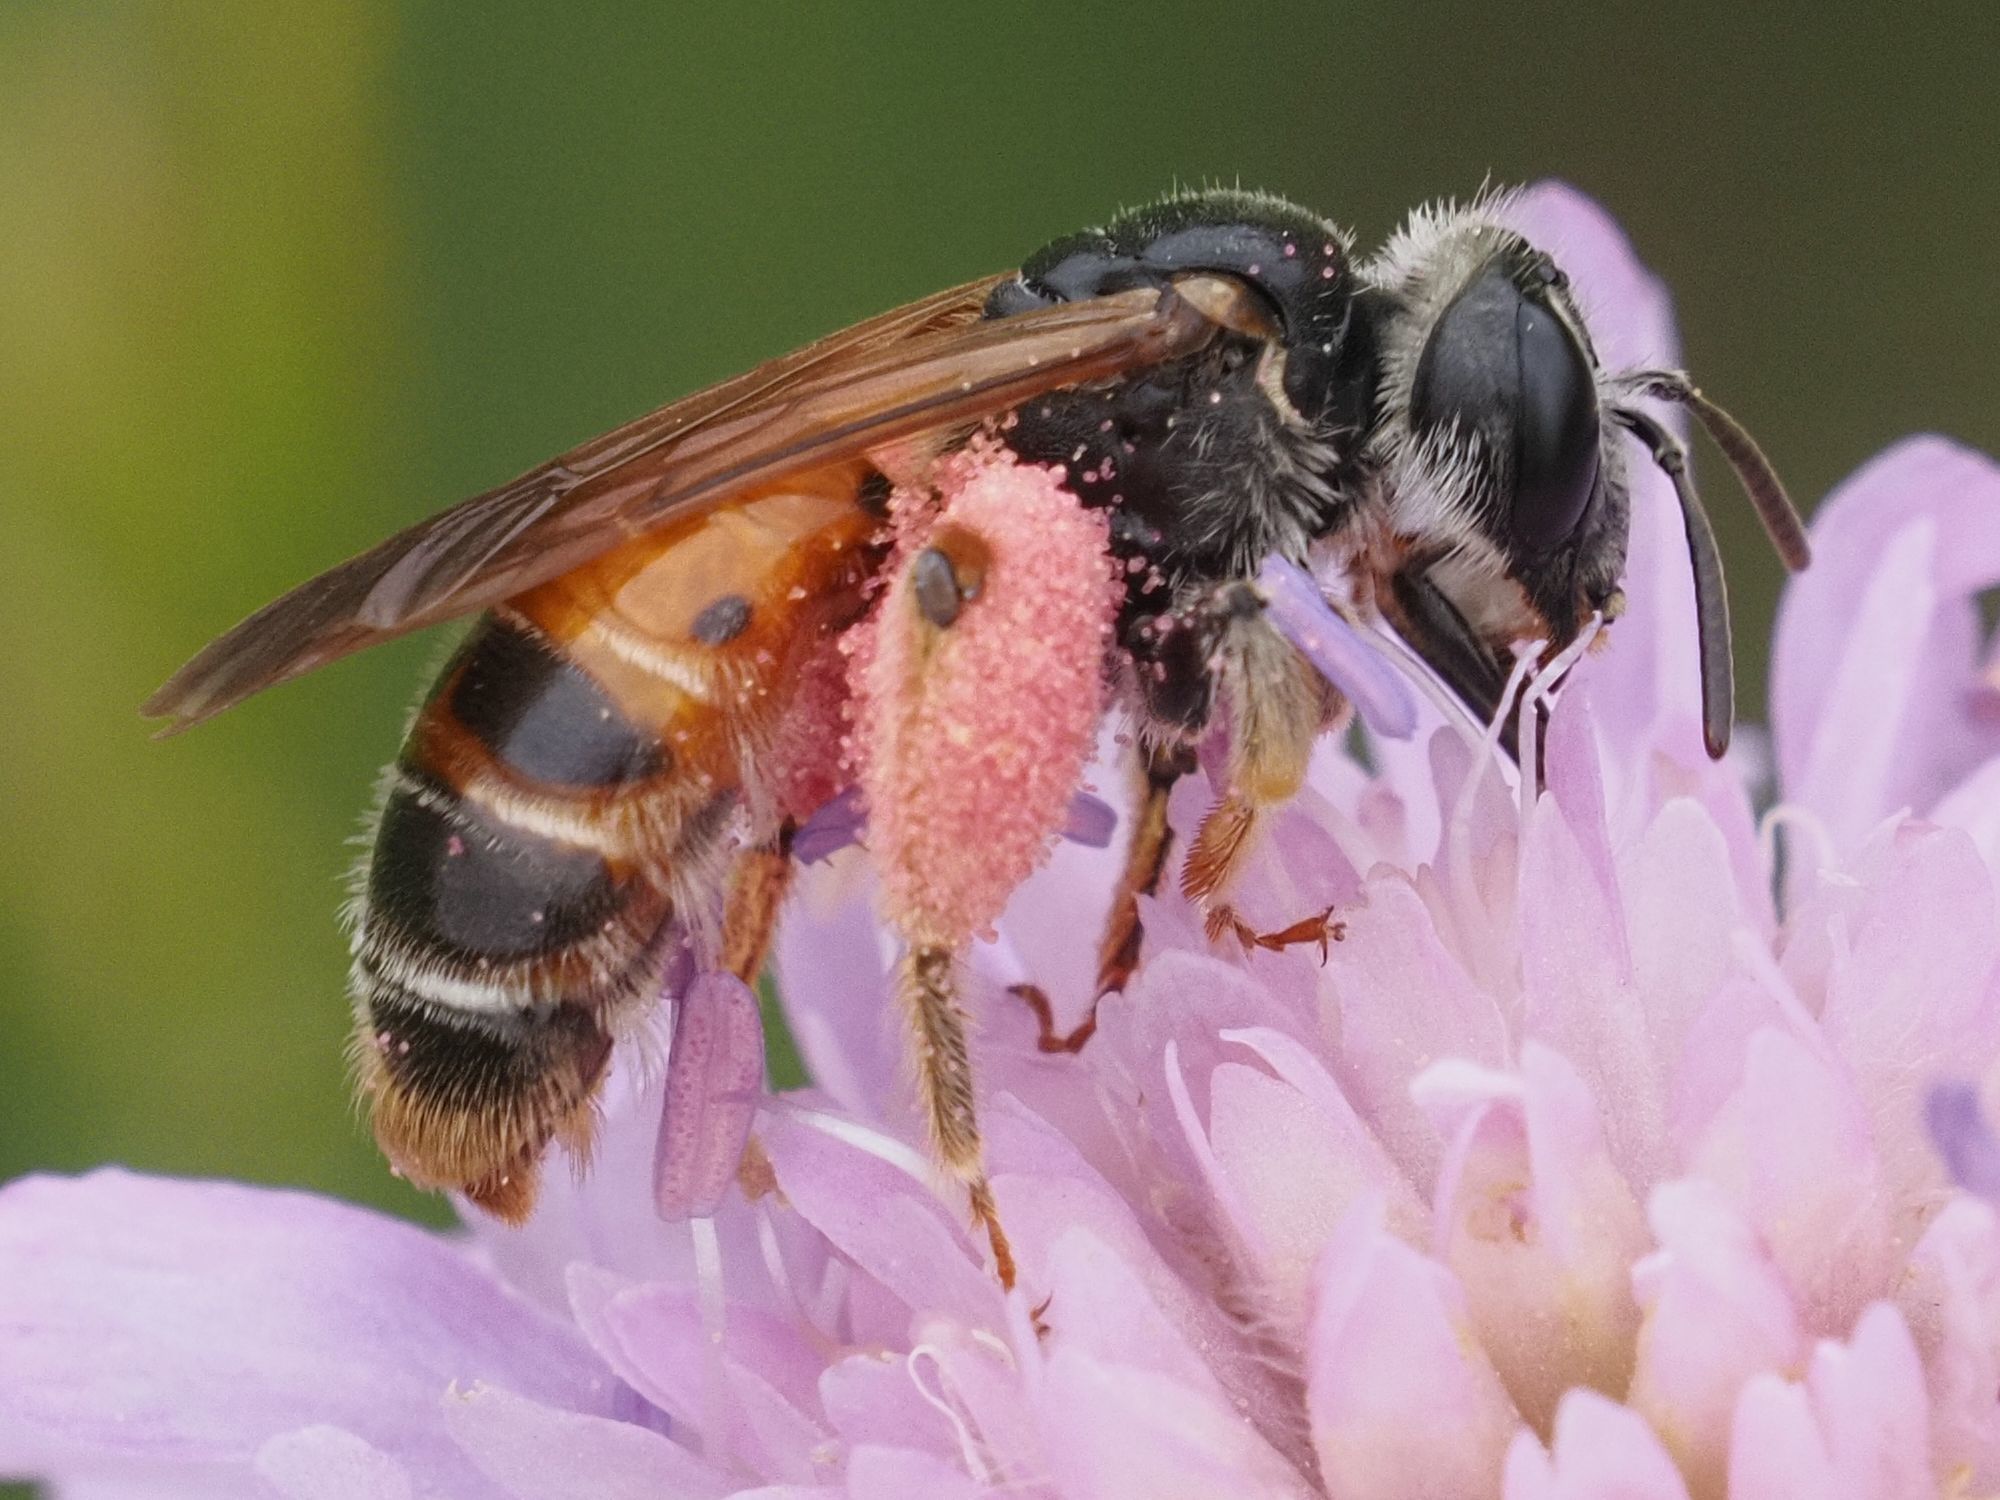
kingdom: Animalia
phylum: Arthropoda
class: Insecta
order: Hymenoptera
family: Andrenidae
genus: Andrena
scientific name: Andrena hattorfiana
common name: Large scabious mining bee
